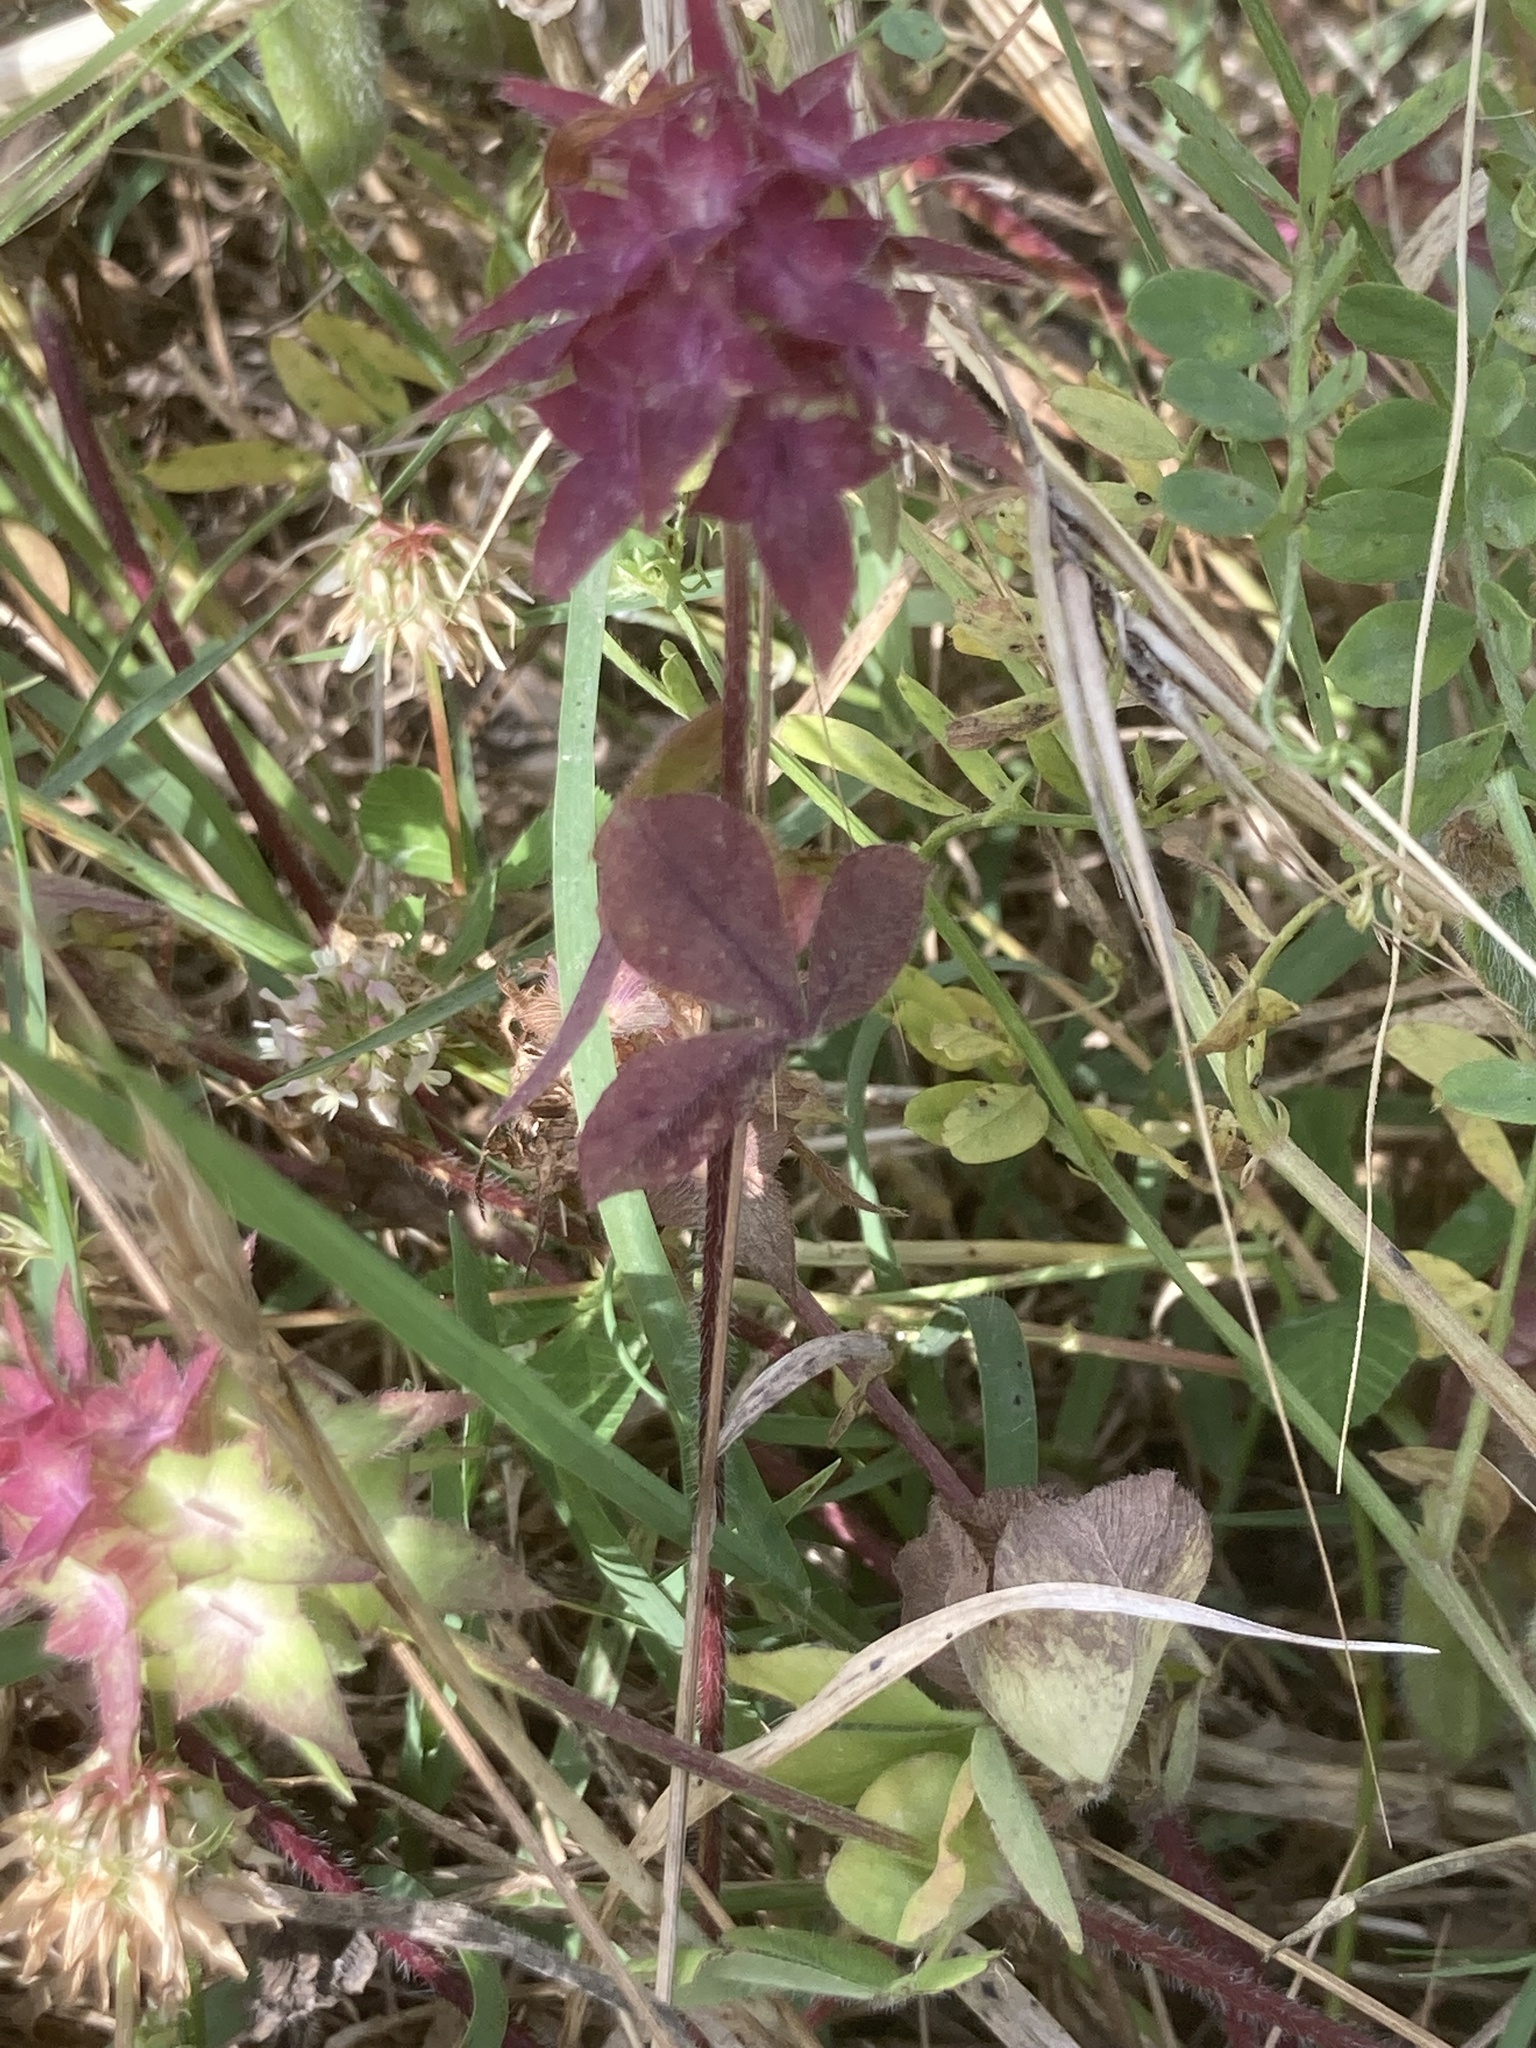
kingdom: Plantae
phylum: Tracheophyta
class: Magnoliopsida
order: Fabales
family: Fabaceae
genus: Trifolium
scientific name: Trifolium clypeatum
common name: Shield clover
